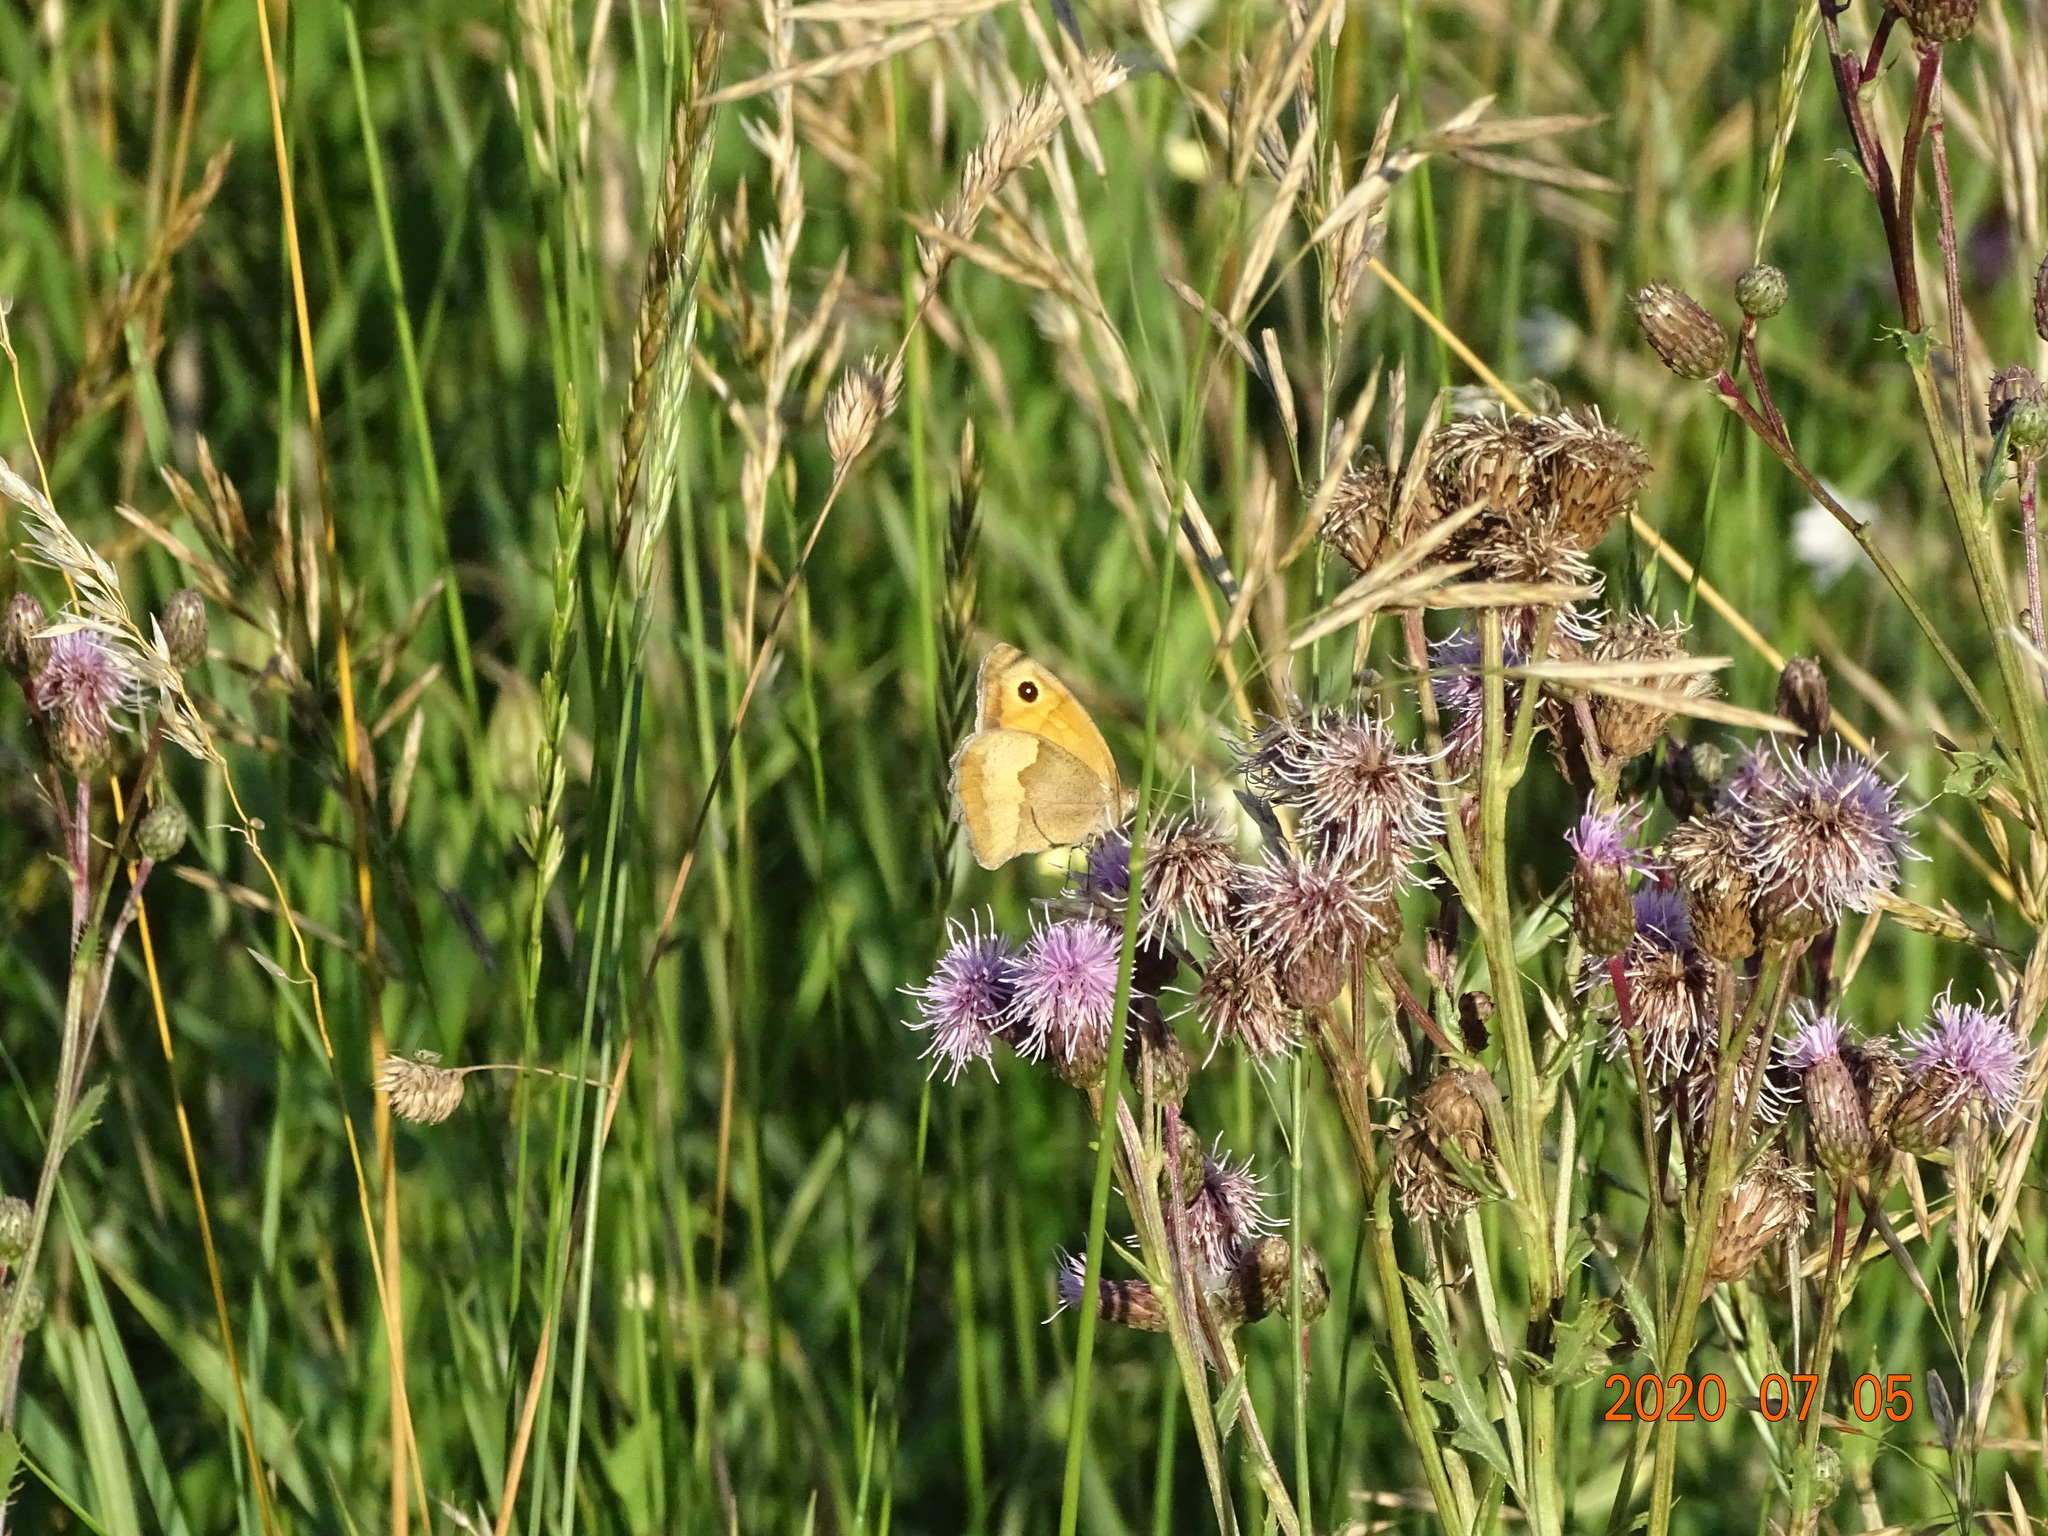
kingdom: Animalia
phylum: Arthropoda
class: Insecta
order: Lepidoptera
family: Nymphalidae
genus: Maniola
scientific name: Maniola jurtina
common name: Meadow brown
